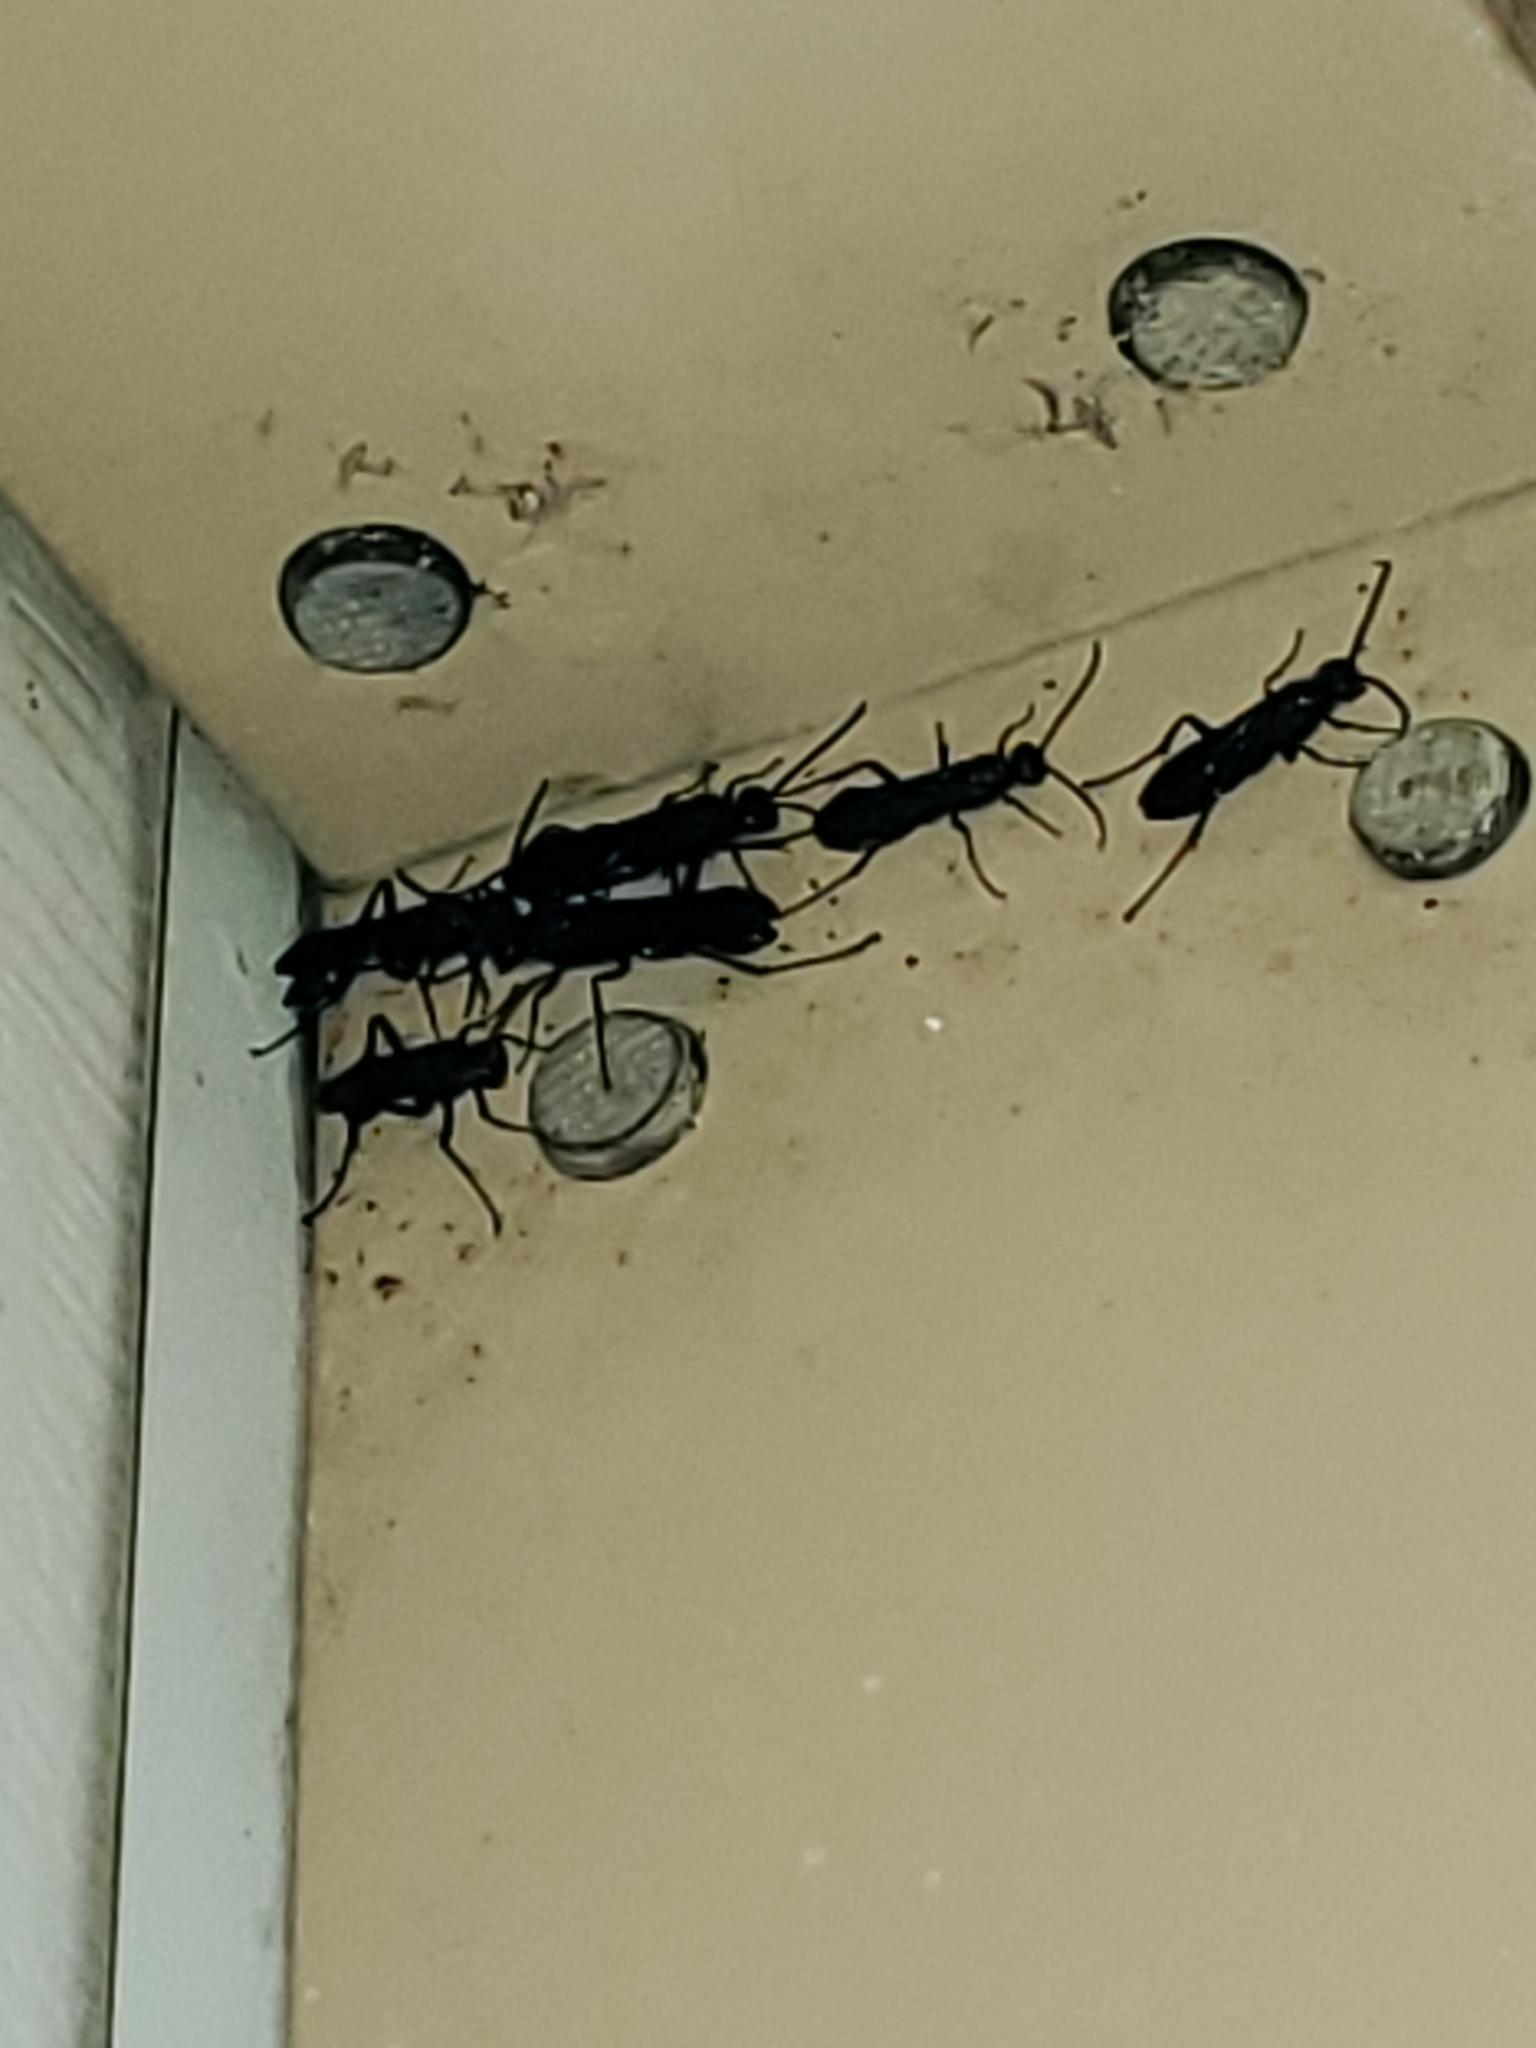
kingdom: Animalia
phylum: Arthropoda
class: Insecta
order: Hymenoptera
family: Sphecidae
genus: Chalybion
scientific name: Chalybion californicum
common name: Mud dauber
